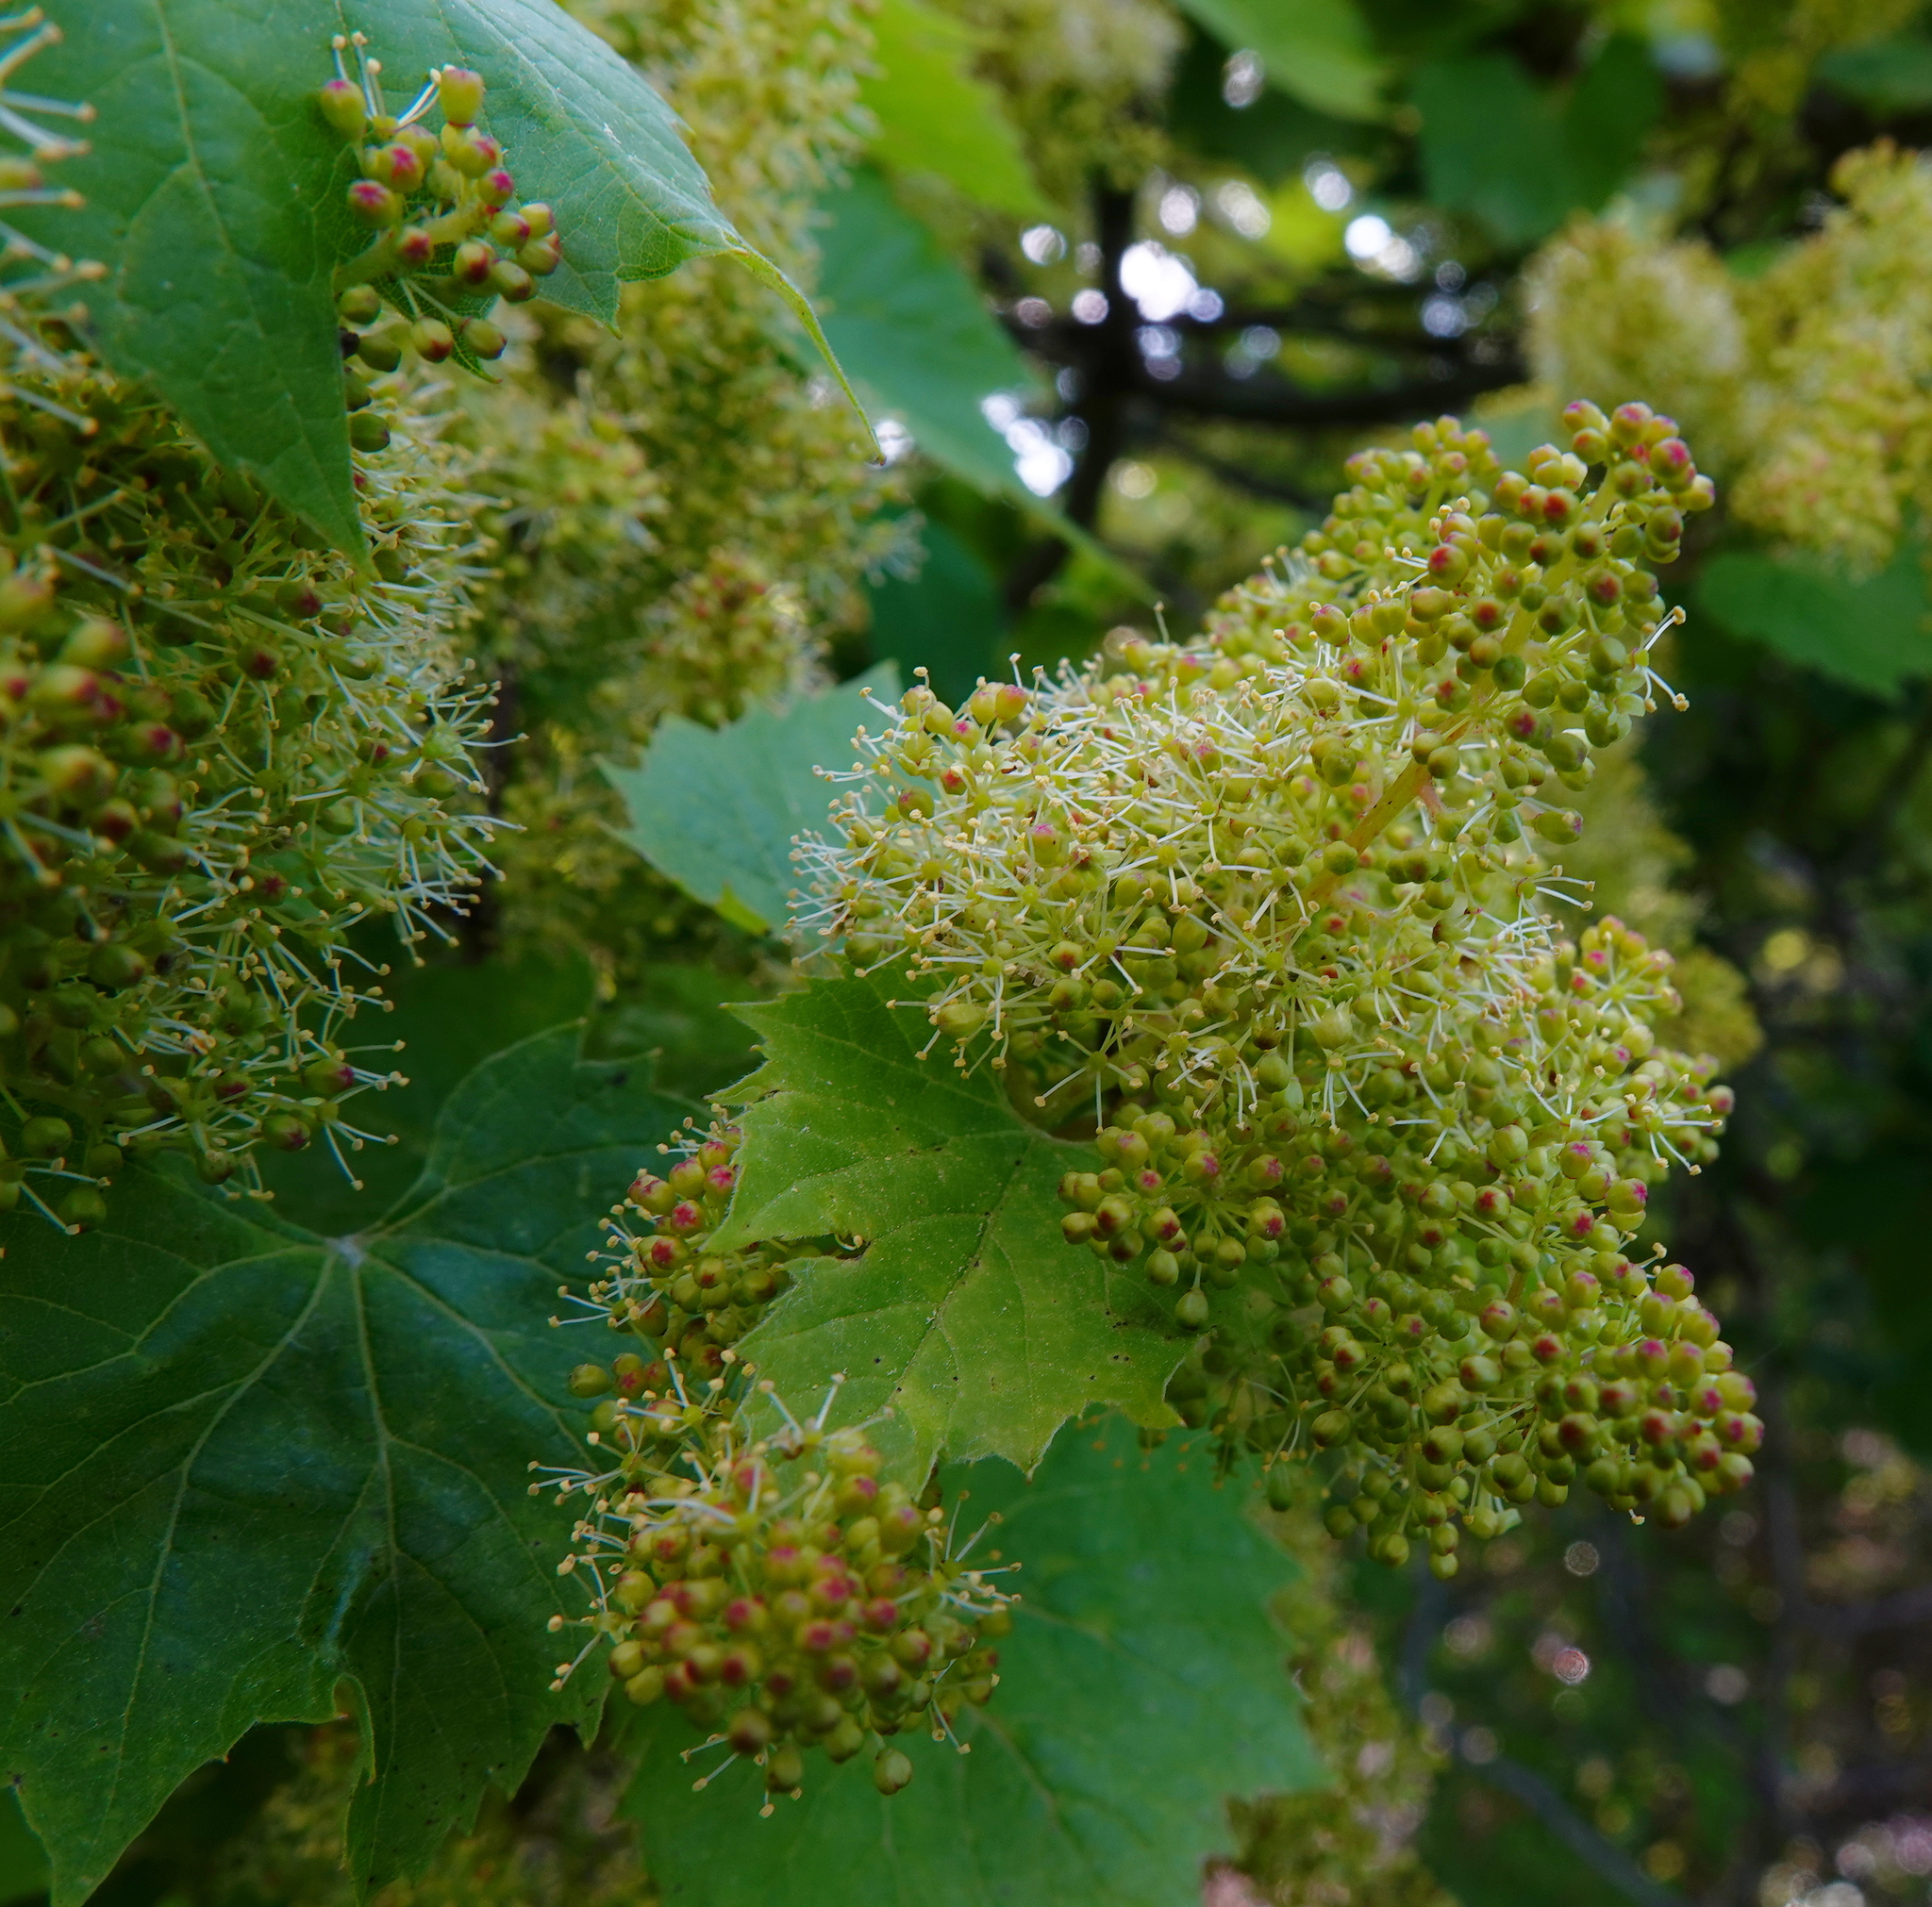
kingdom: Plantae
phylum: Tracheophyta
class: Magnoliopsida
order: Vitales
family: Vitaceae
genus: Vitis
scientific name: Vitis riparia
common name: Frost grape
